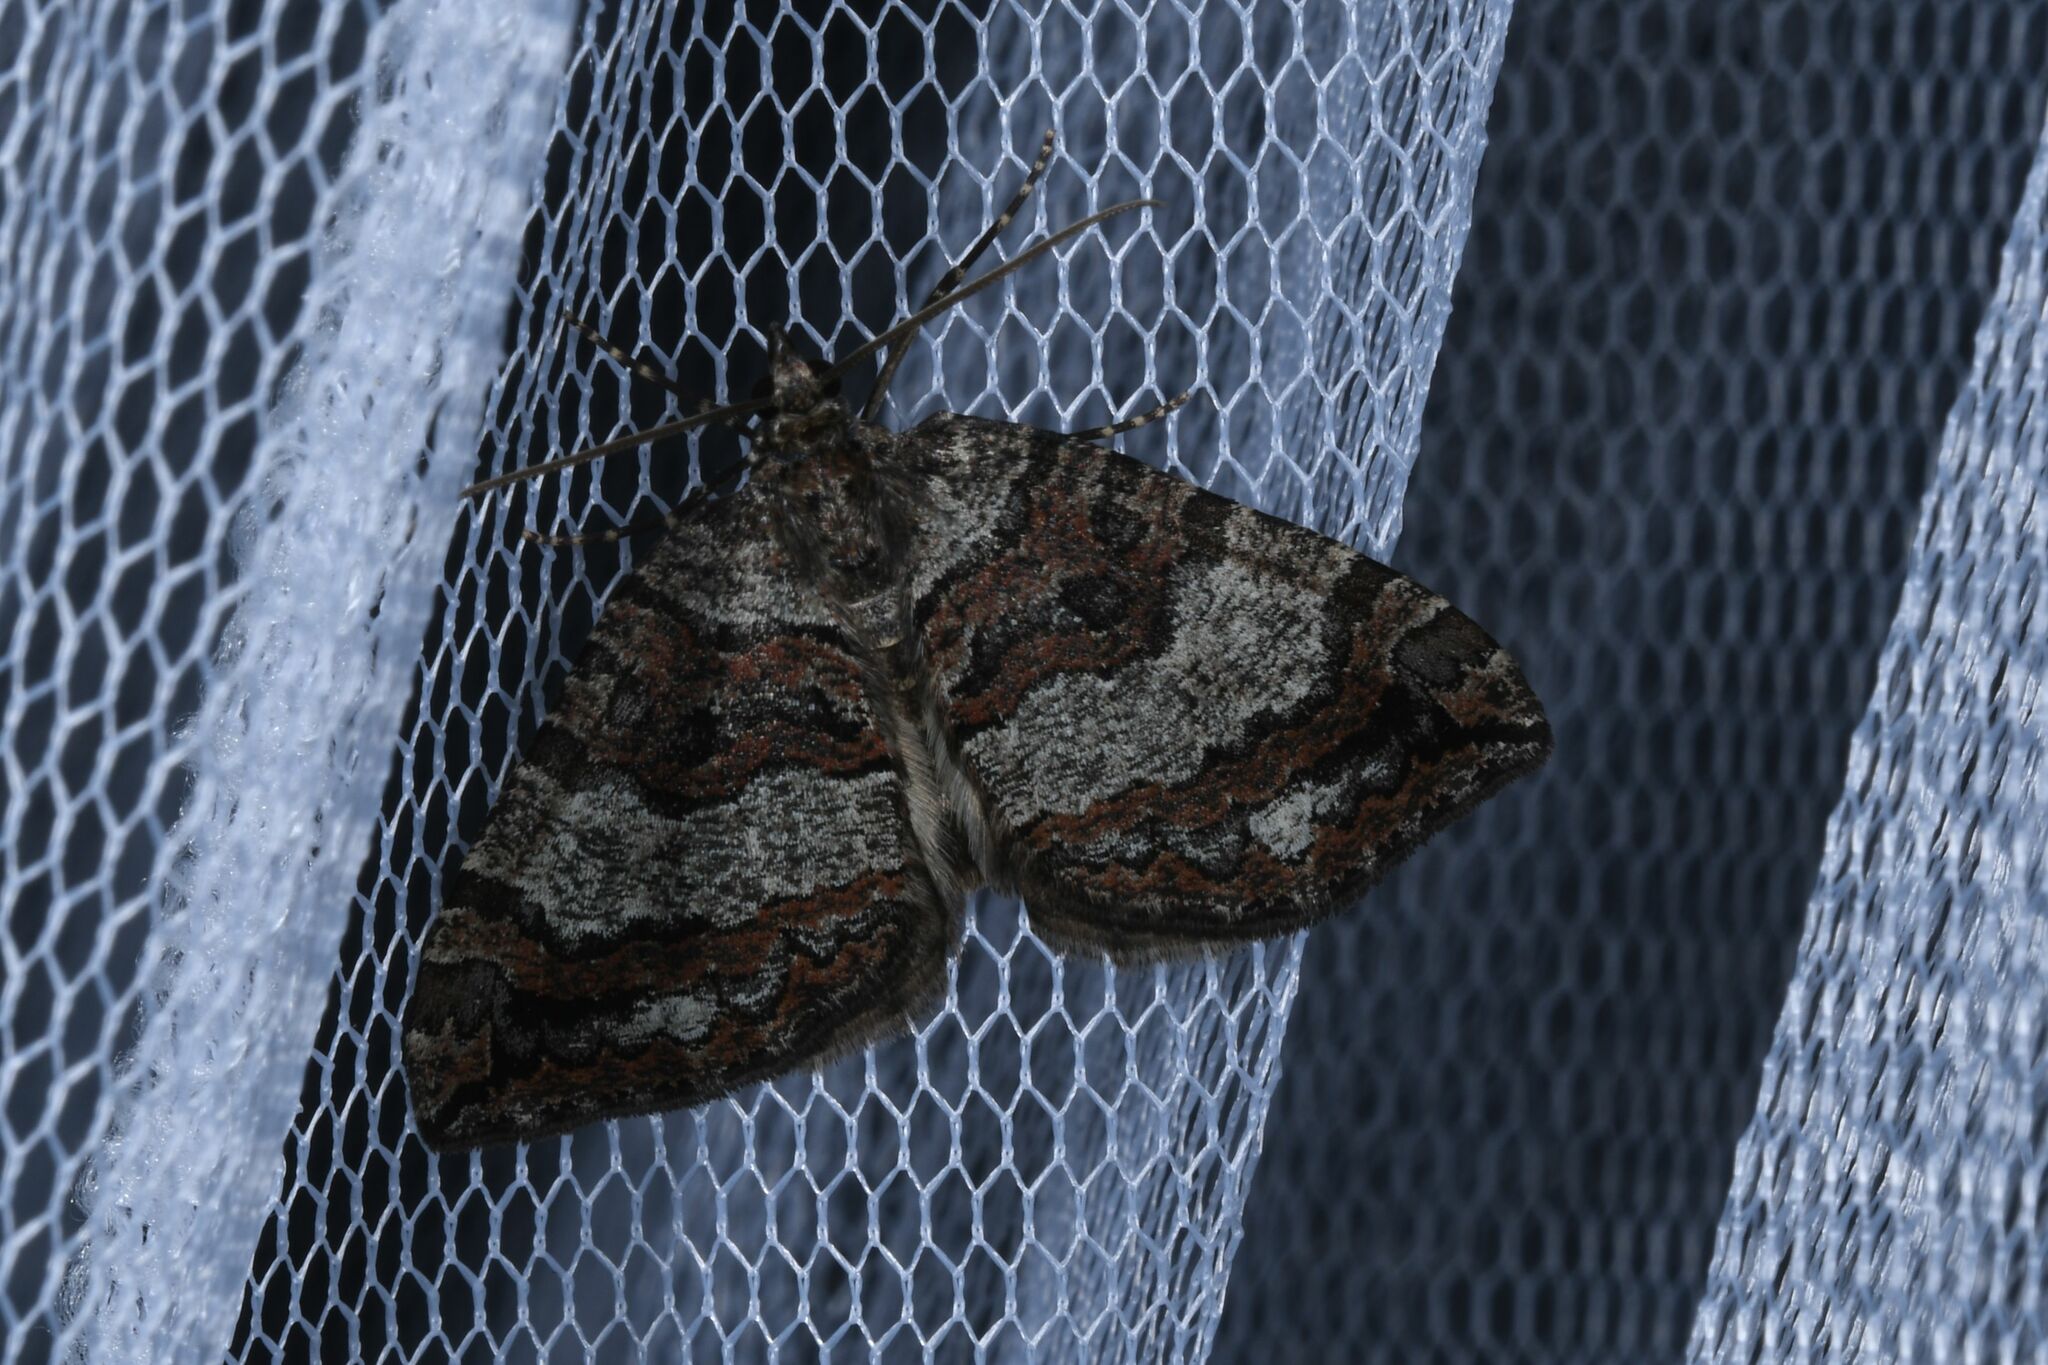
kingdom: Animalia
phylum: Arthropoda
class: Insecta
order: Lepidoptera
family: Geometridae
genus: Hydriomena
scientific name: Hydriomena furcata
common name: July highflyer
